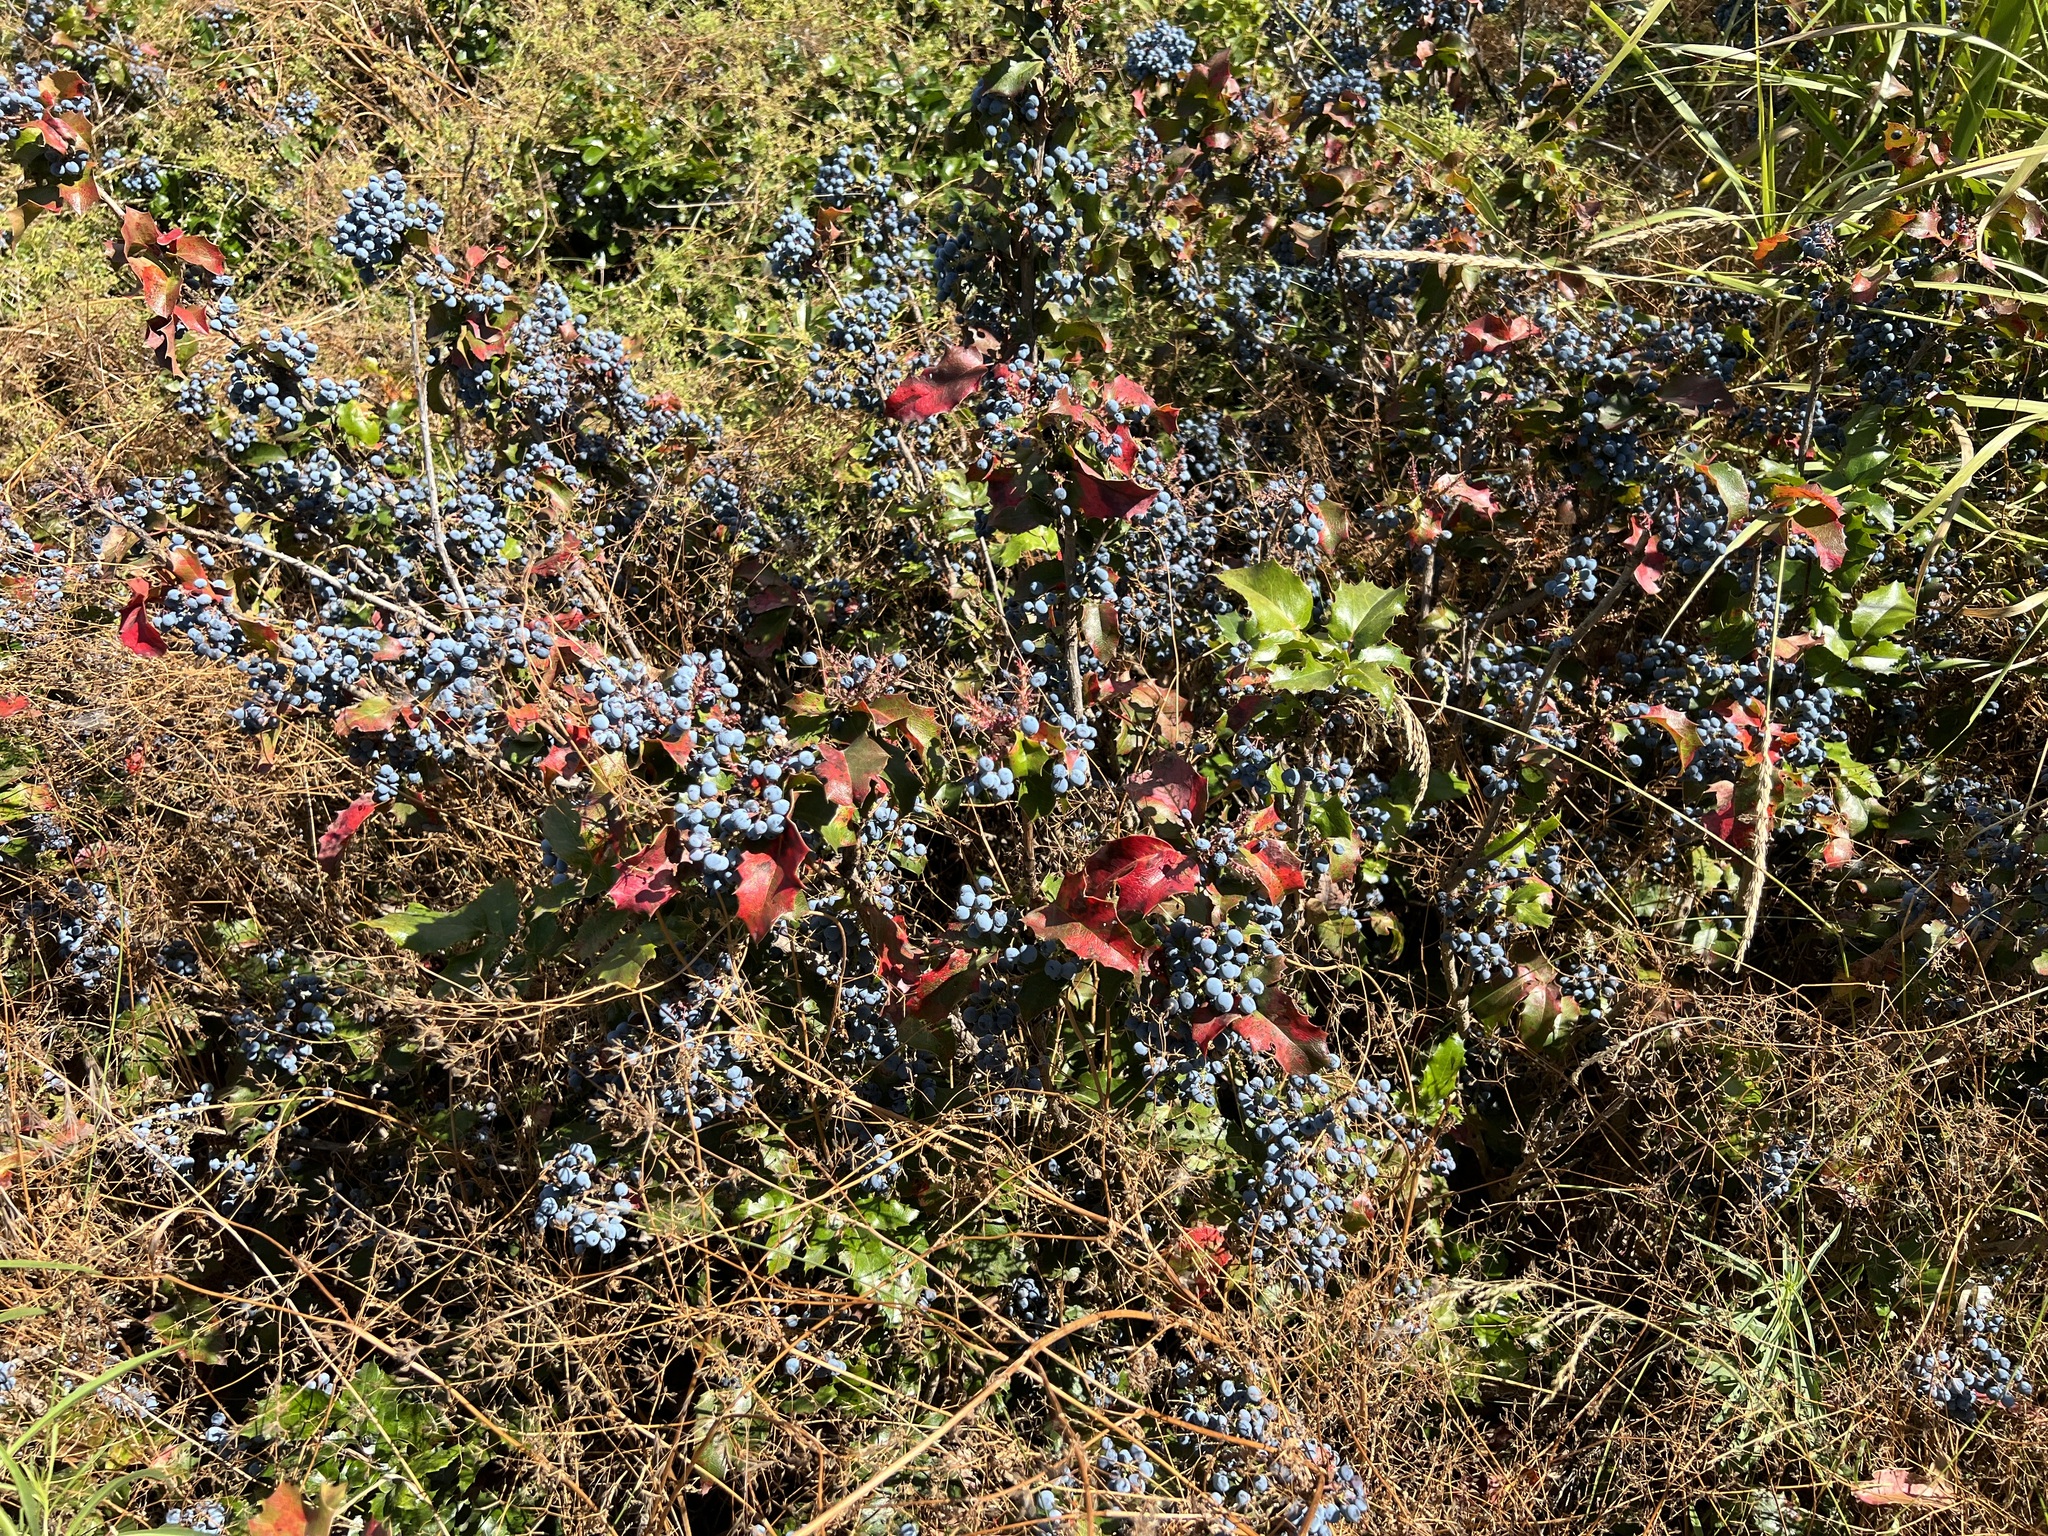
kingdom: Plantae
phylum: Tracheophyta
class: Magnoliopsida
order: Ranunculales
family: Berberidaceae
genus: Mahonia
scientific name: Mahonia aquifolium
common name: Oregon-grape
